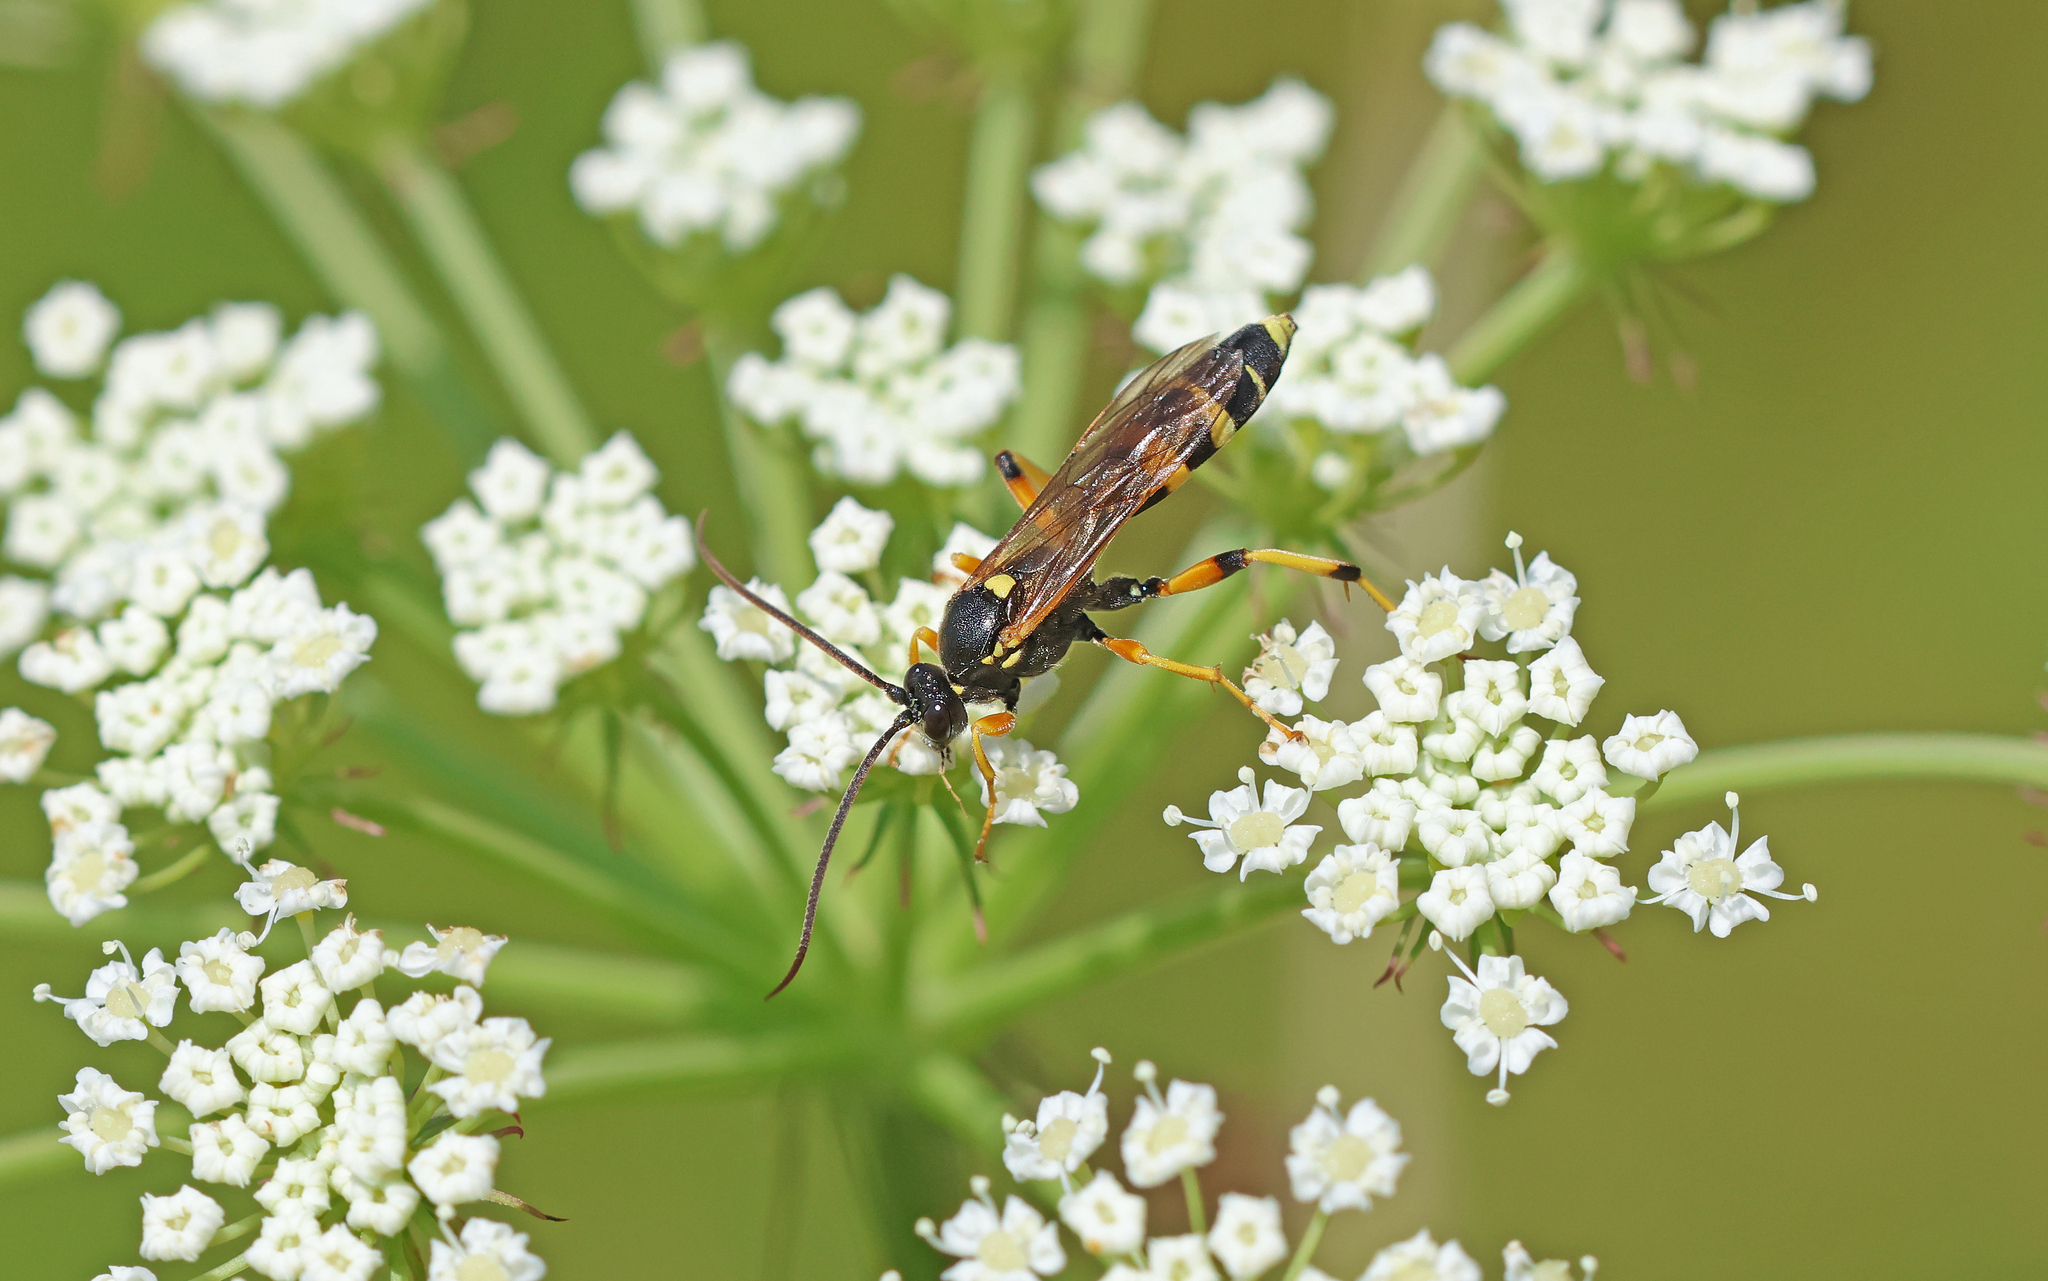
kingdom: Animalia
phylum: Arthropoda
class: Insecta
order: Hymenoptera
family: Ichneumonidae
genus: Ichneumon
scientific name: Ichneumon sarcitorius
